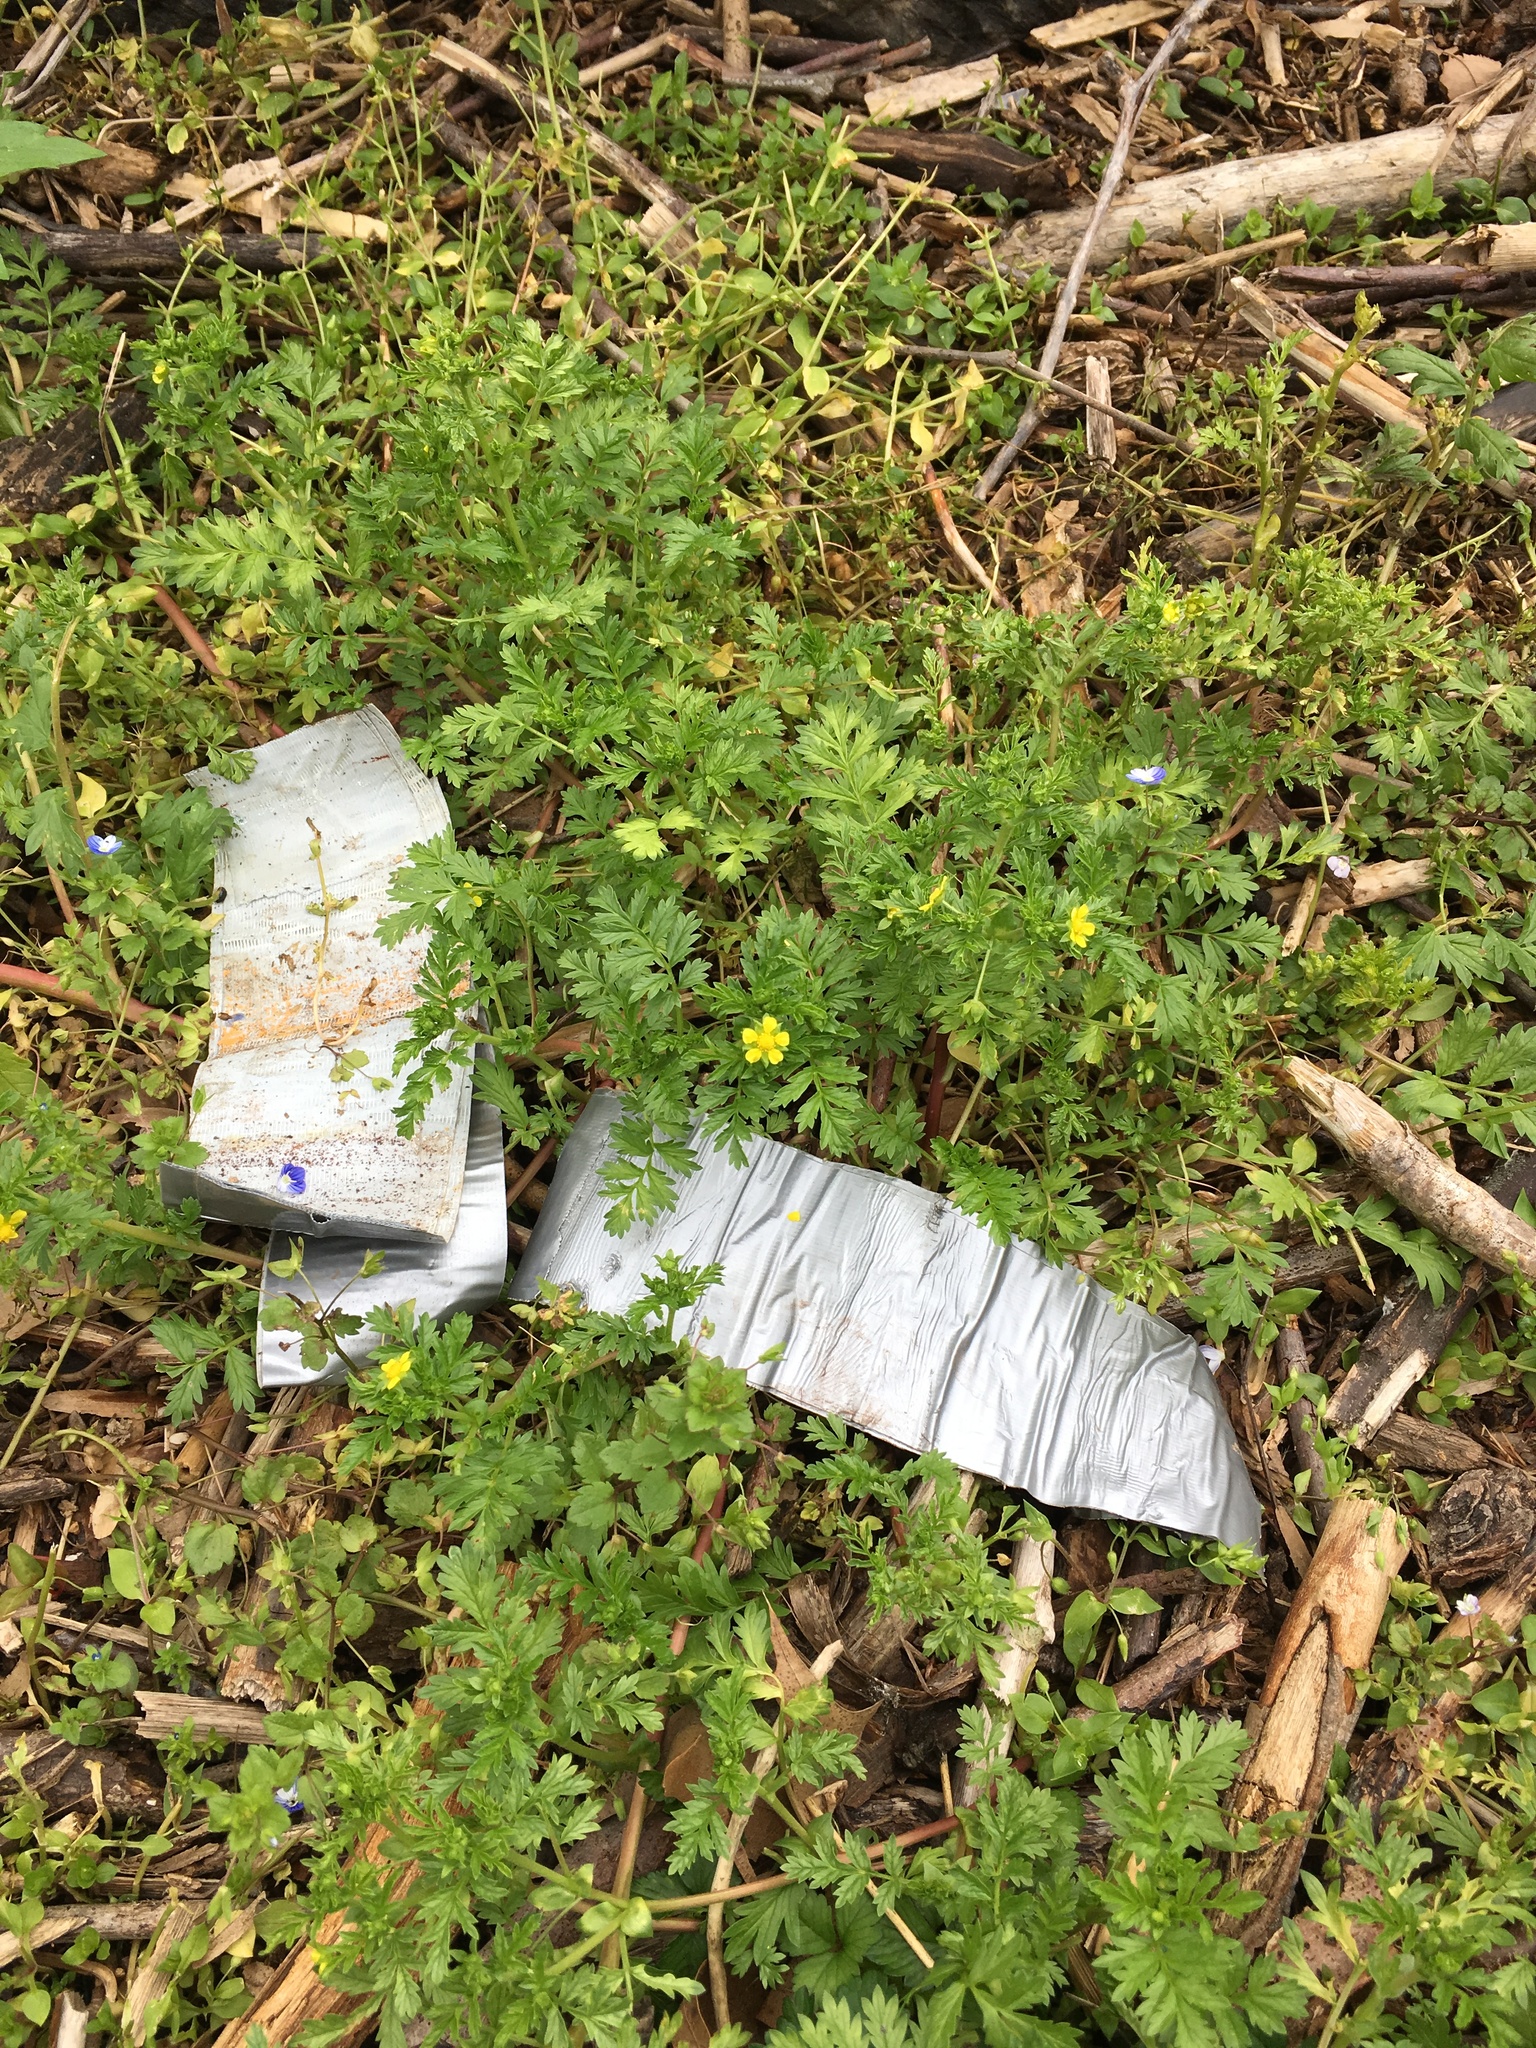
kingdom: Plantae
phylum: Tracheophyta
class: Magnoliopsida
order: Rosales
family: Rosaceae
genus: Potentilla
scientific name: Potentilla supina
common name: Prostrate cinquefoil
